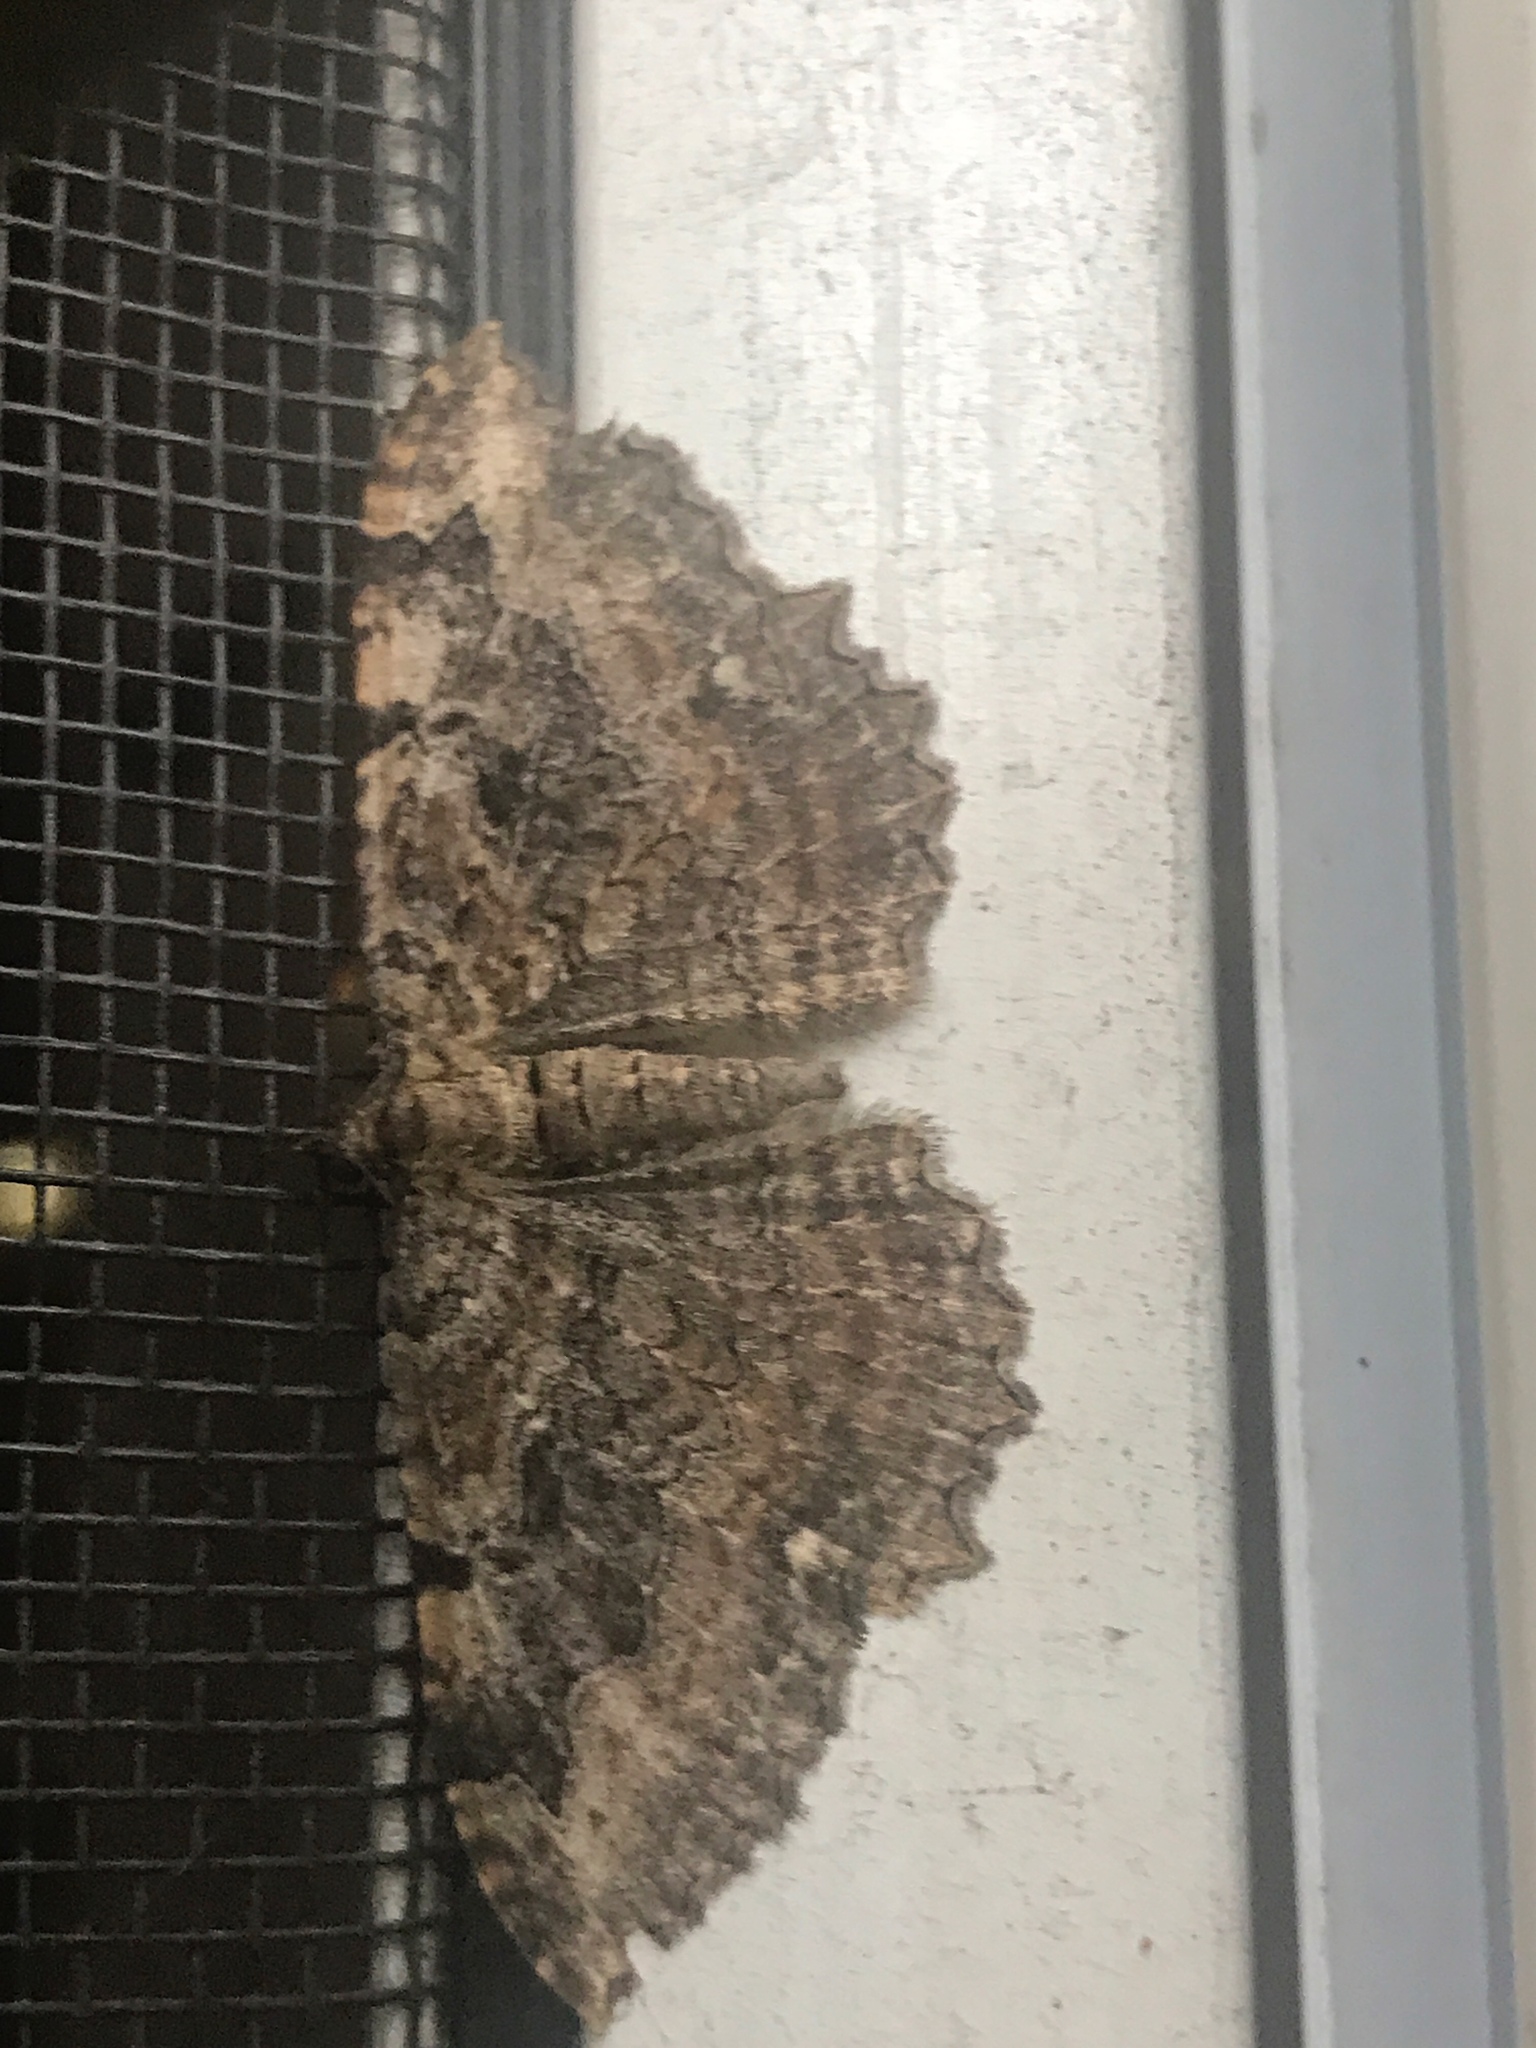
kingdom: Animalia
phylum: Arthropoda
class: Insecta
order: Lepidoptera
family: Geometridae
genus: Rheumaptera
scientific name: Rheumaptera
